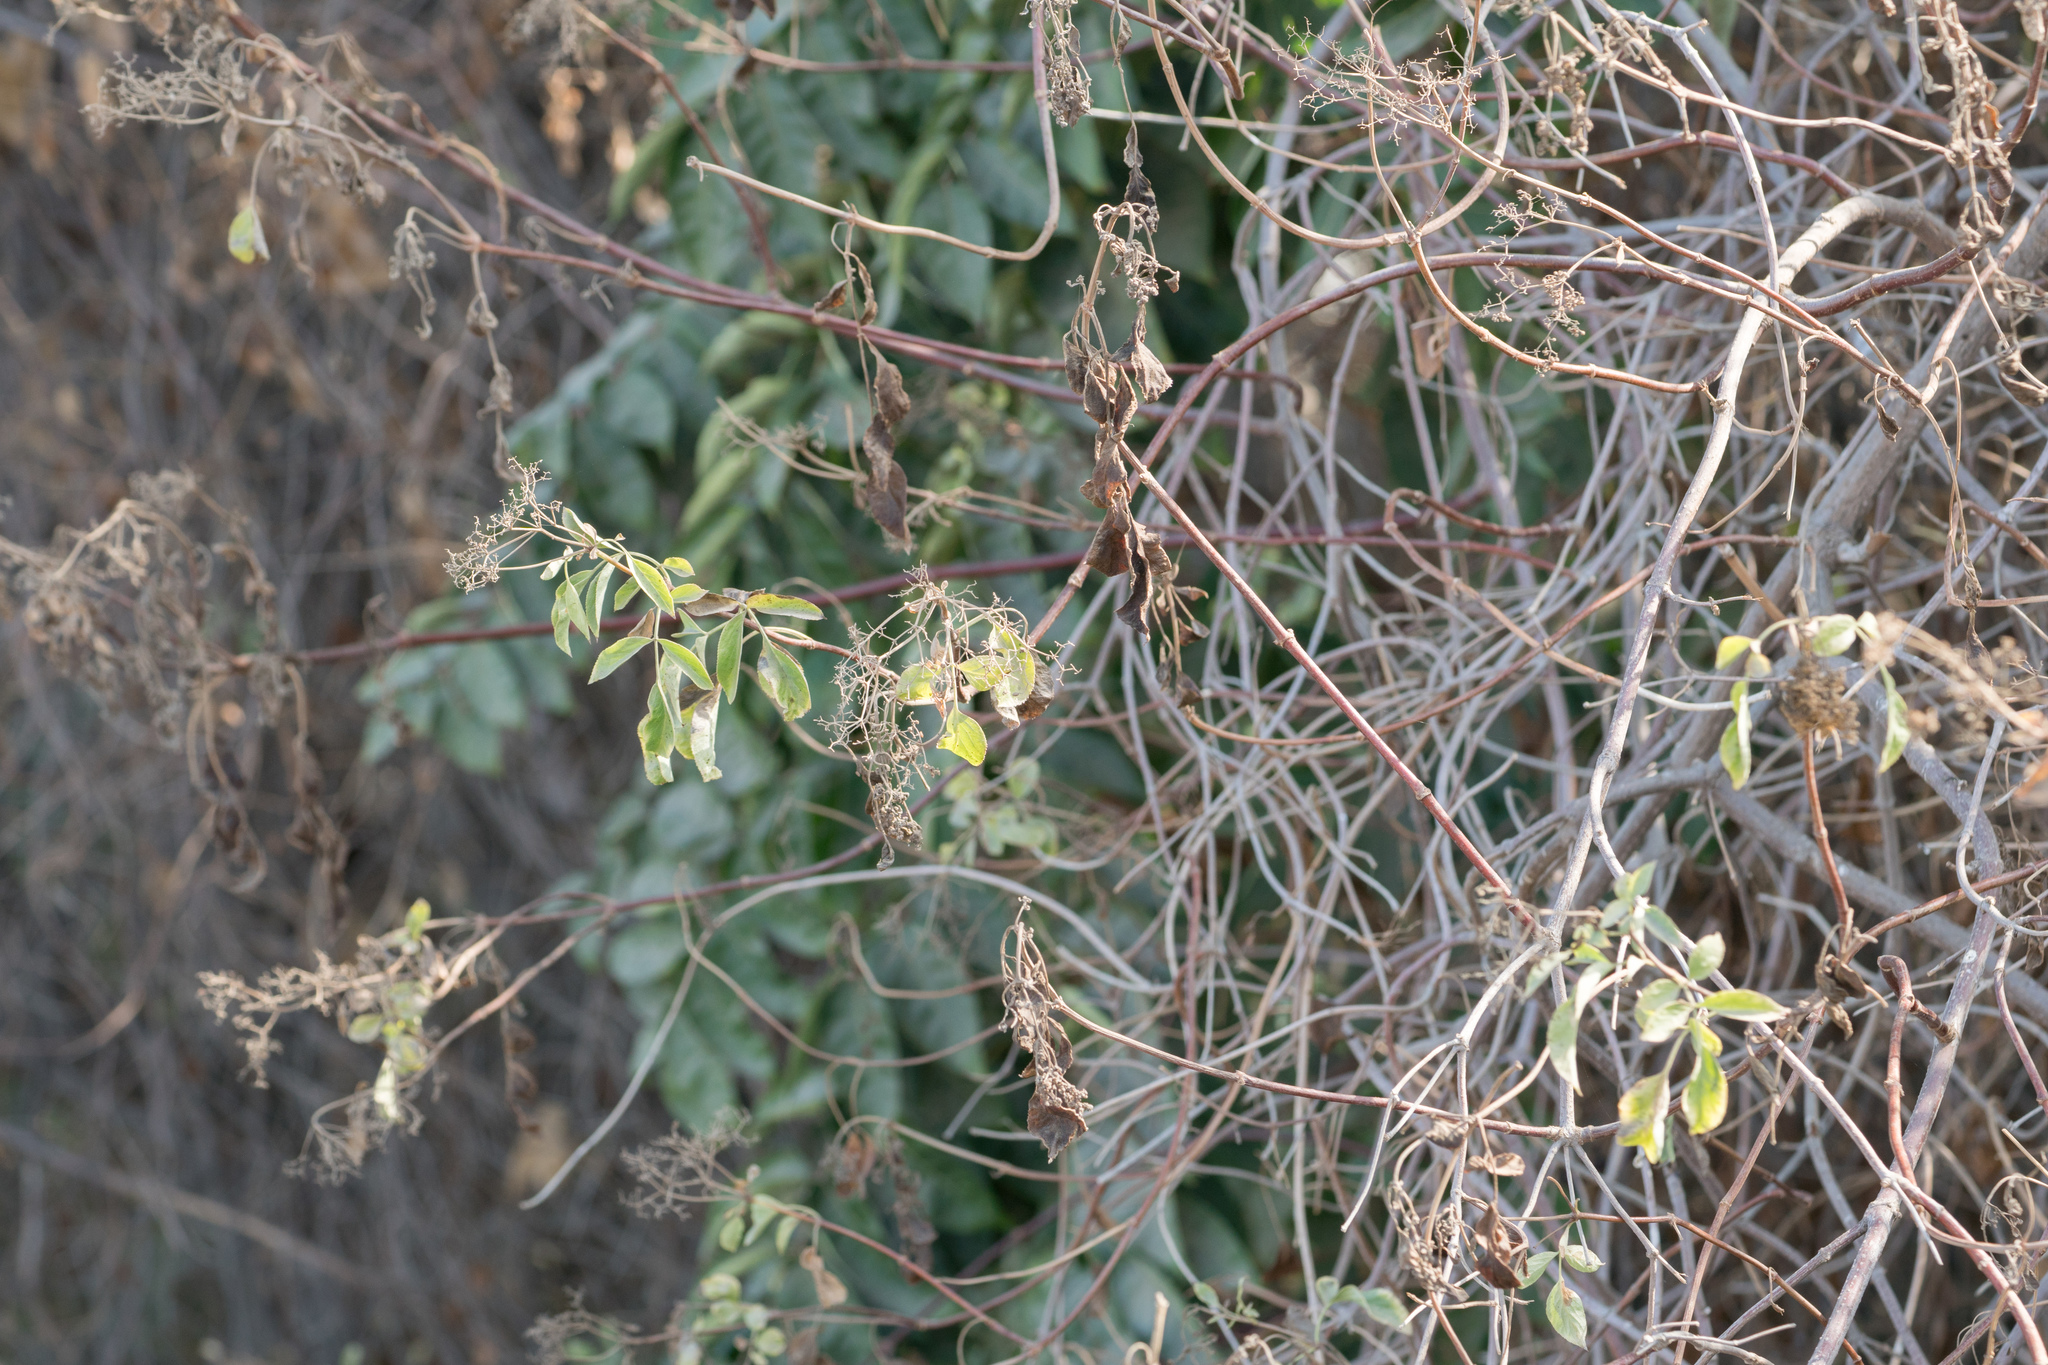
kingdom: Plantae
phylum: Tracheophyta
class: Magnoliopsida
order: Dipsacales
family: Viburnaceae
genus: Sambucus
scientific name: Sambucus cerulea
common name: Blue elder
